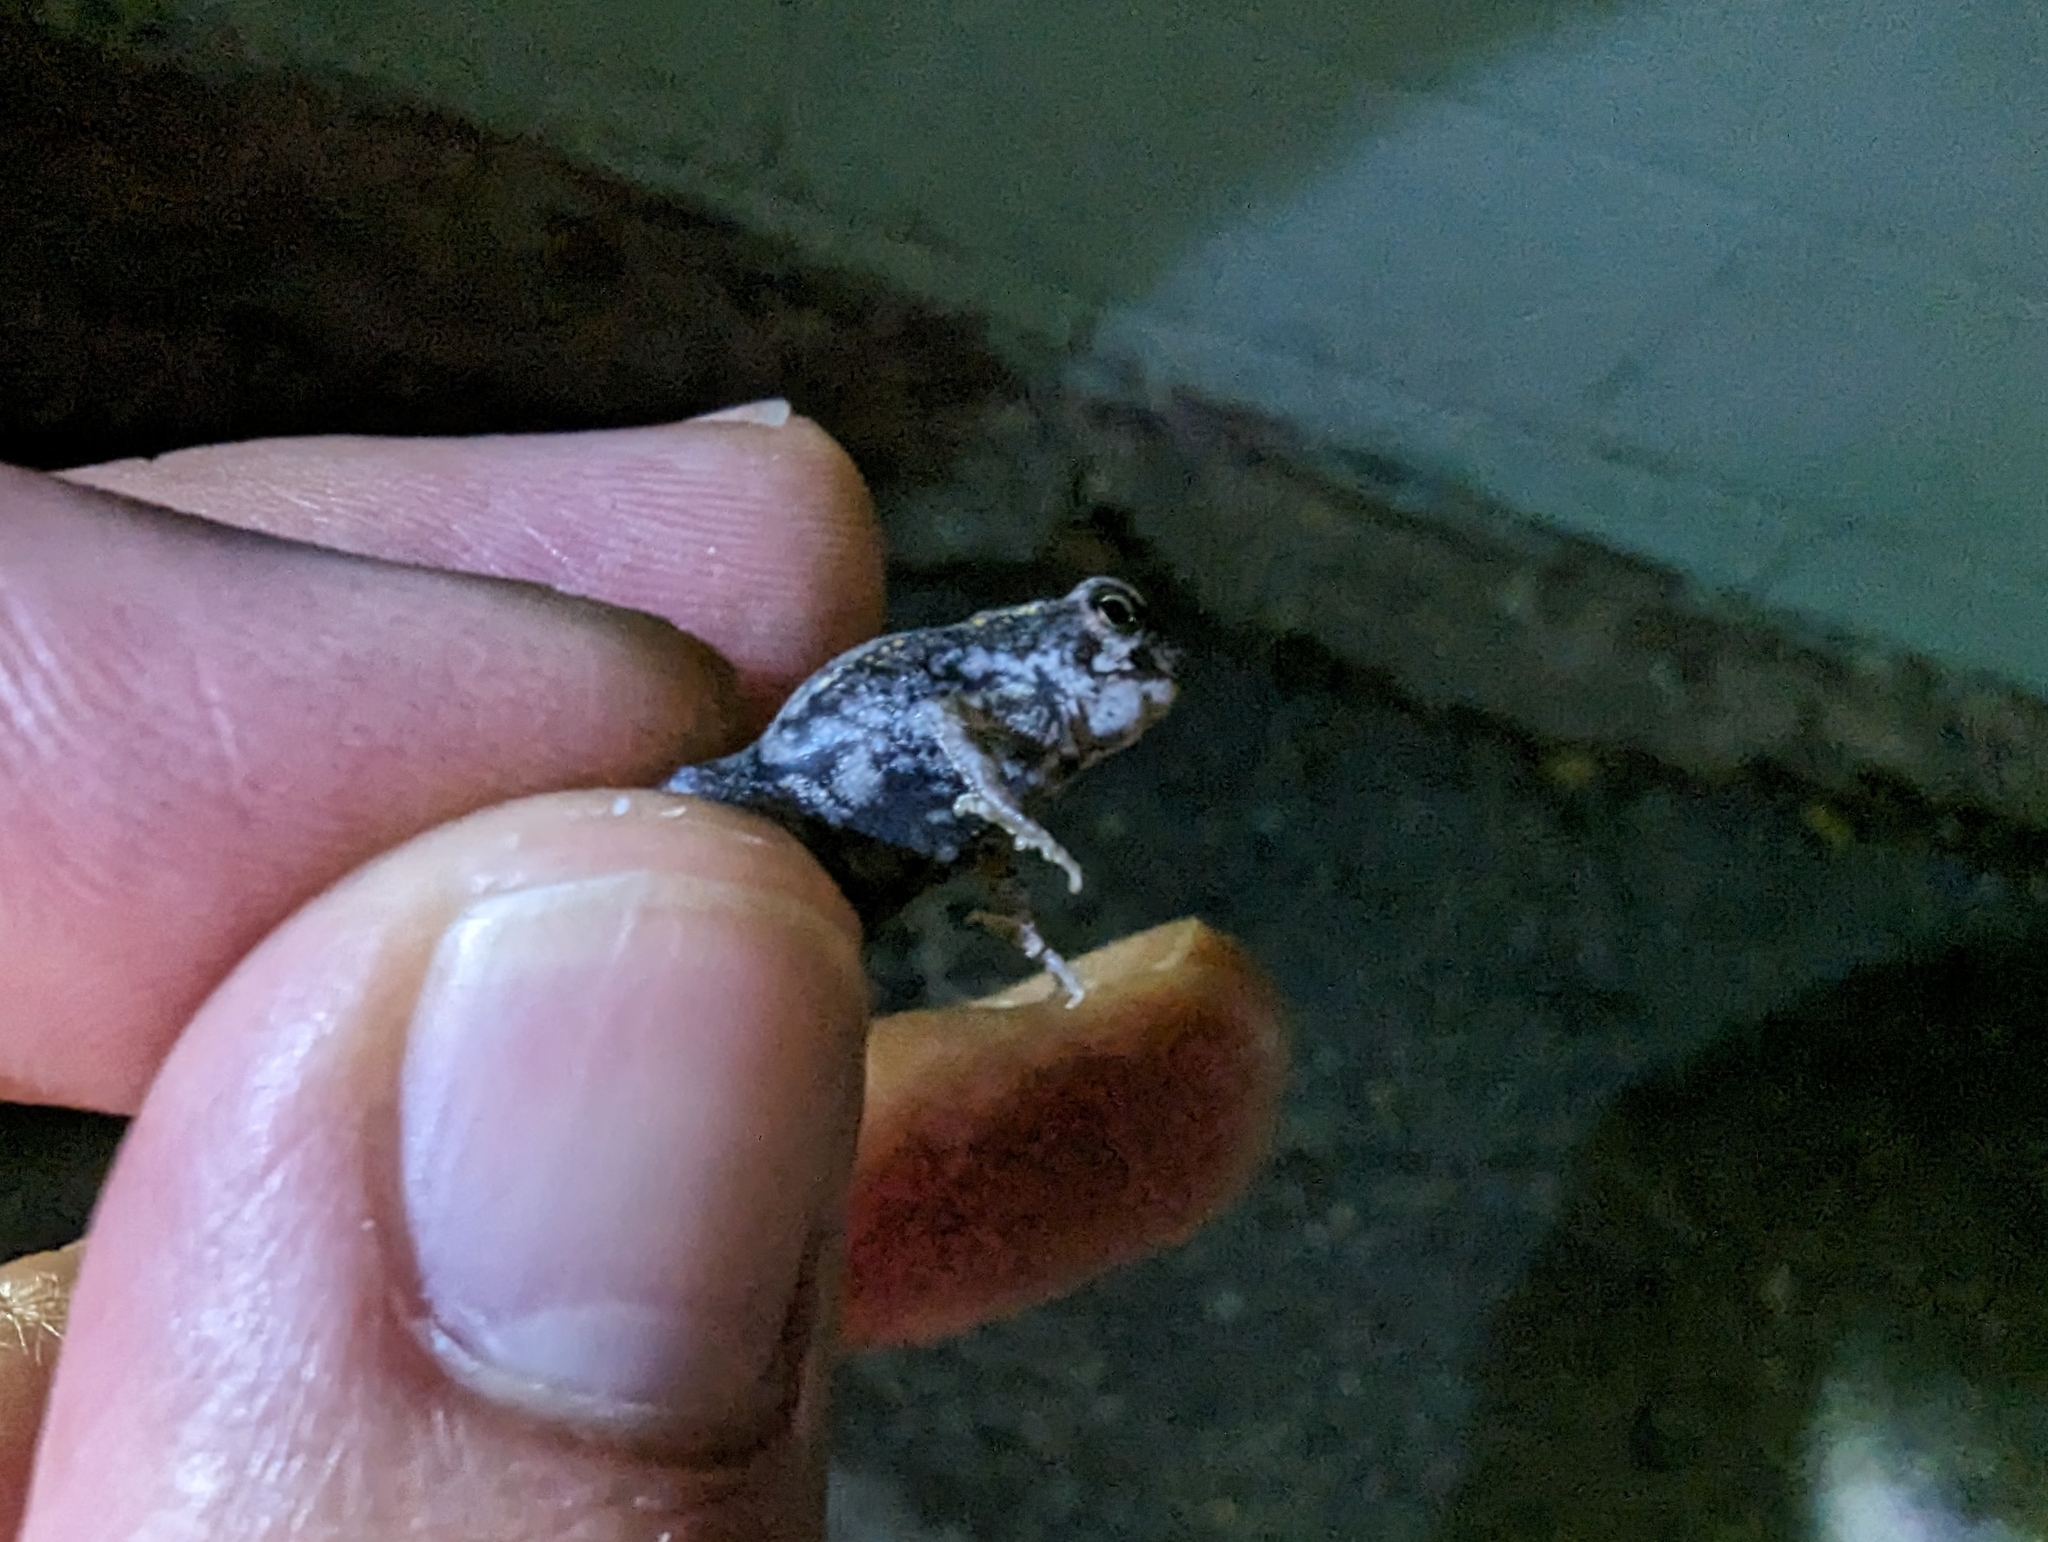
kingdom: Animalia
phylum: Chordata
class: Amphibia
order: Anura
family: Bufonidae
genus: Rhinella
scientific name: Rhinella marina
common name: Cane toad
